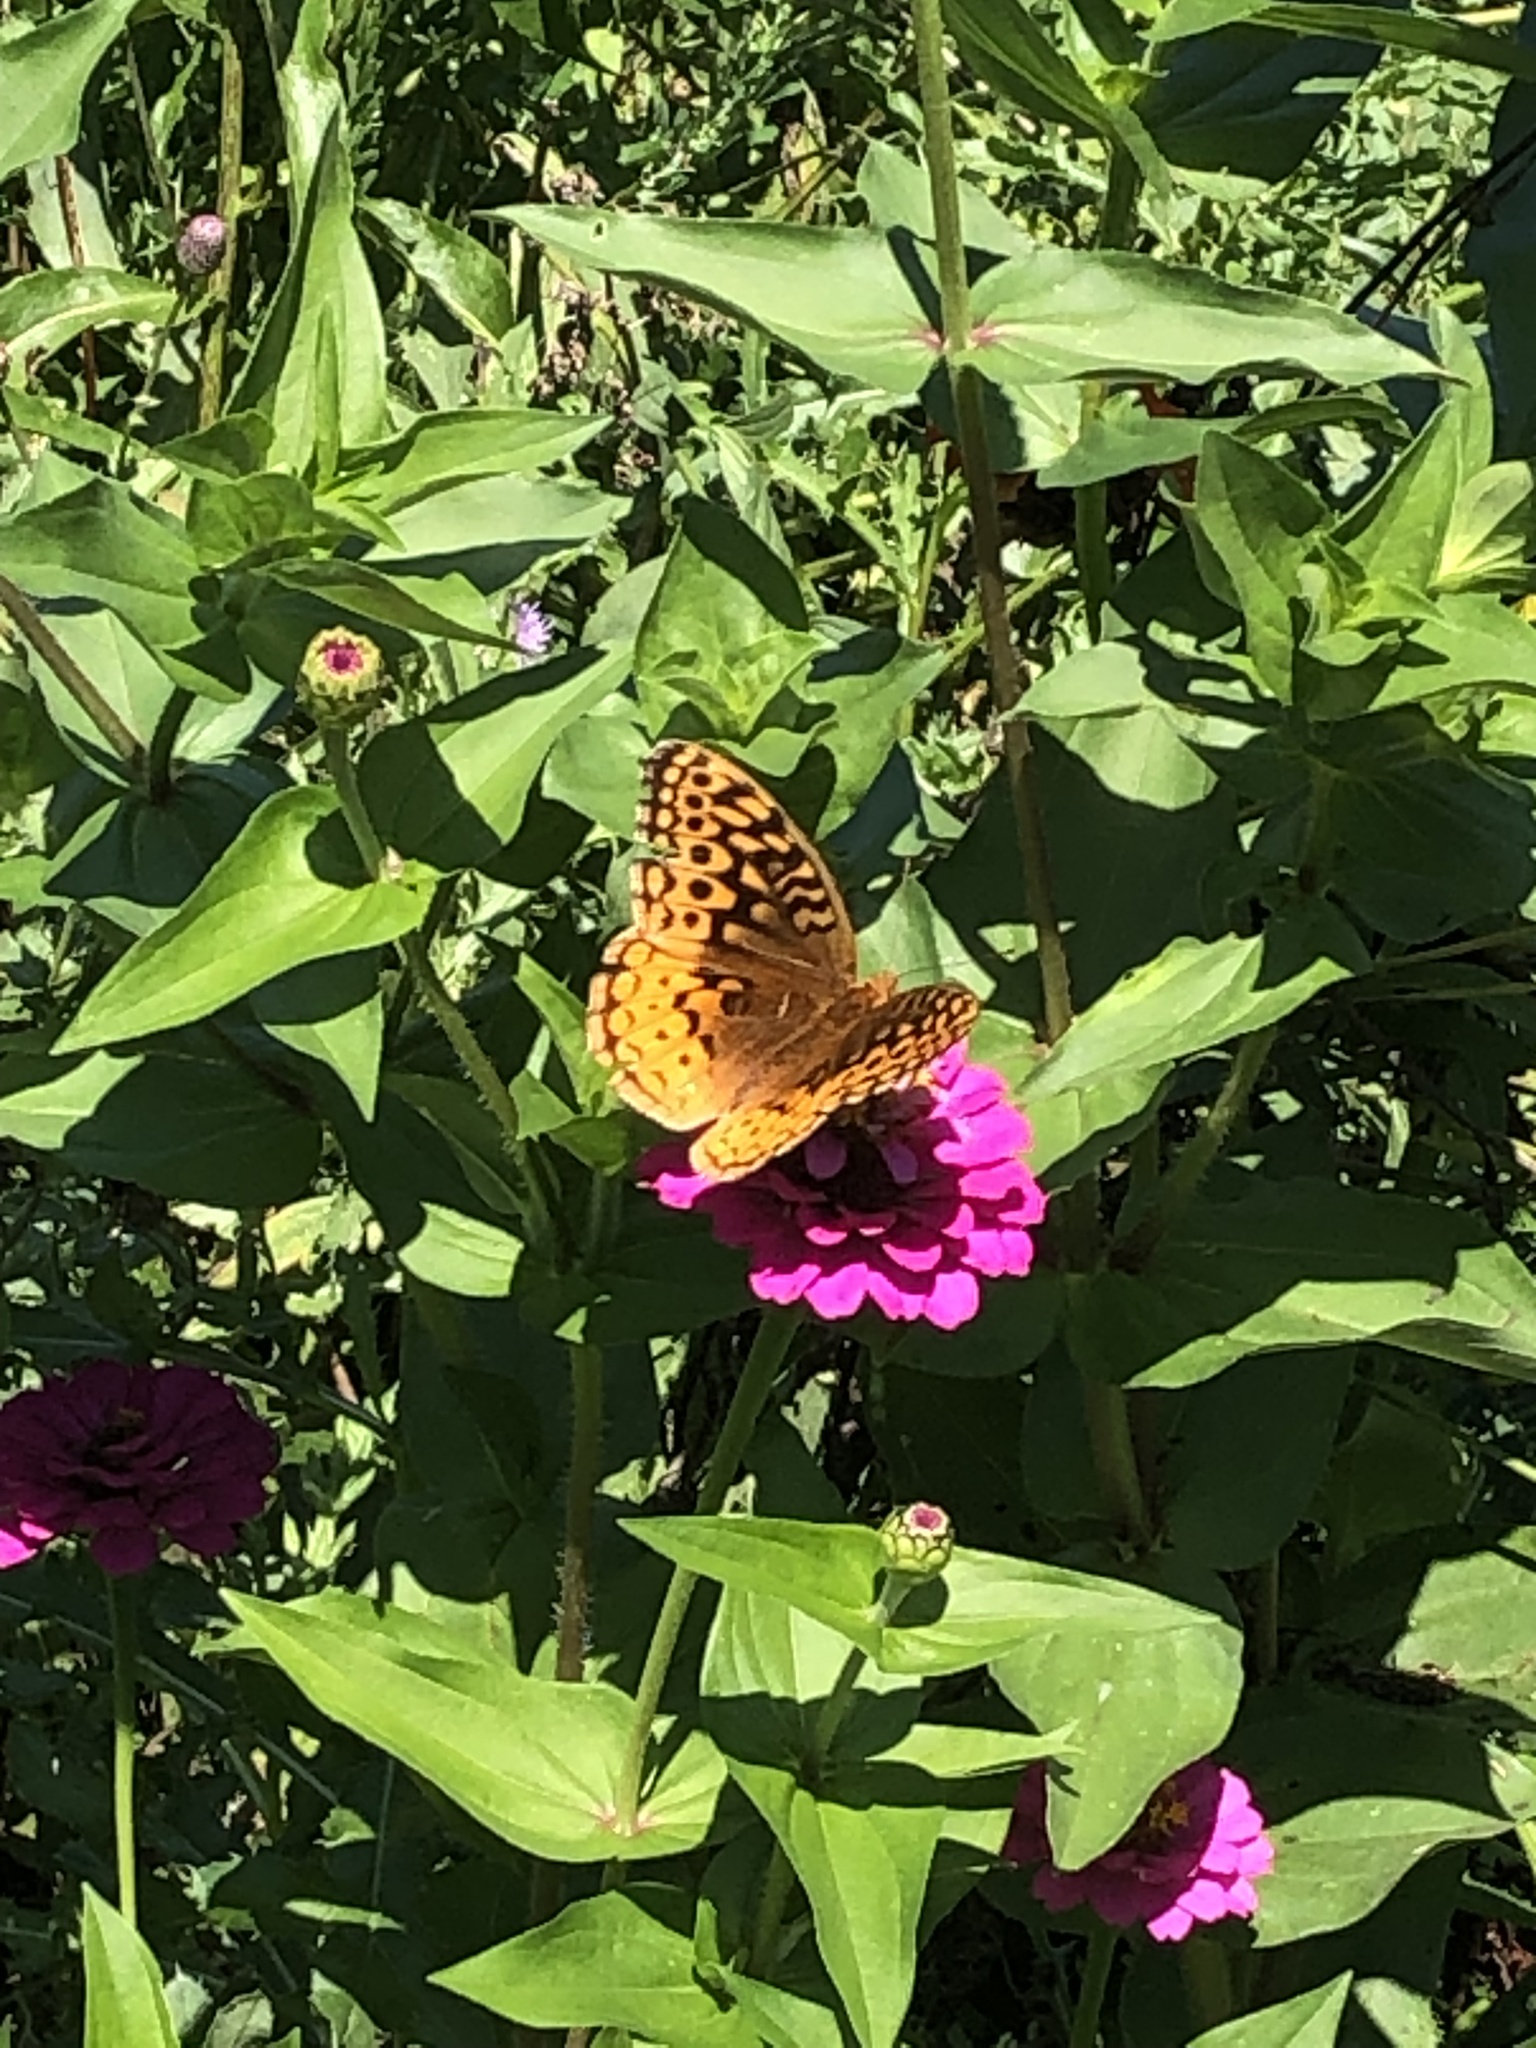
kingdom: Animalia
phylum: Arthropoda
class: Insecta
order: Lepidoptera
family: Nymphalidae
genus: Speyeria
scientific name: Speyeria cybele
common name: Great spangled fritillary
